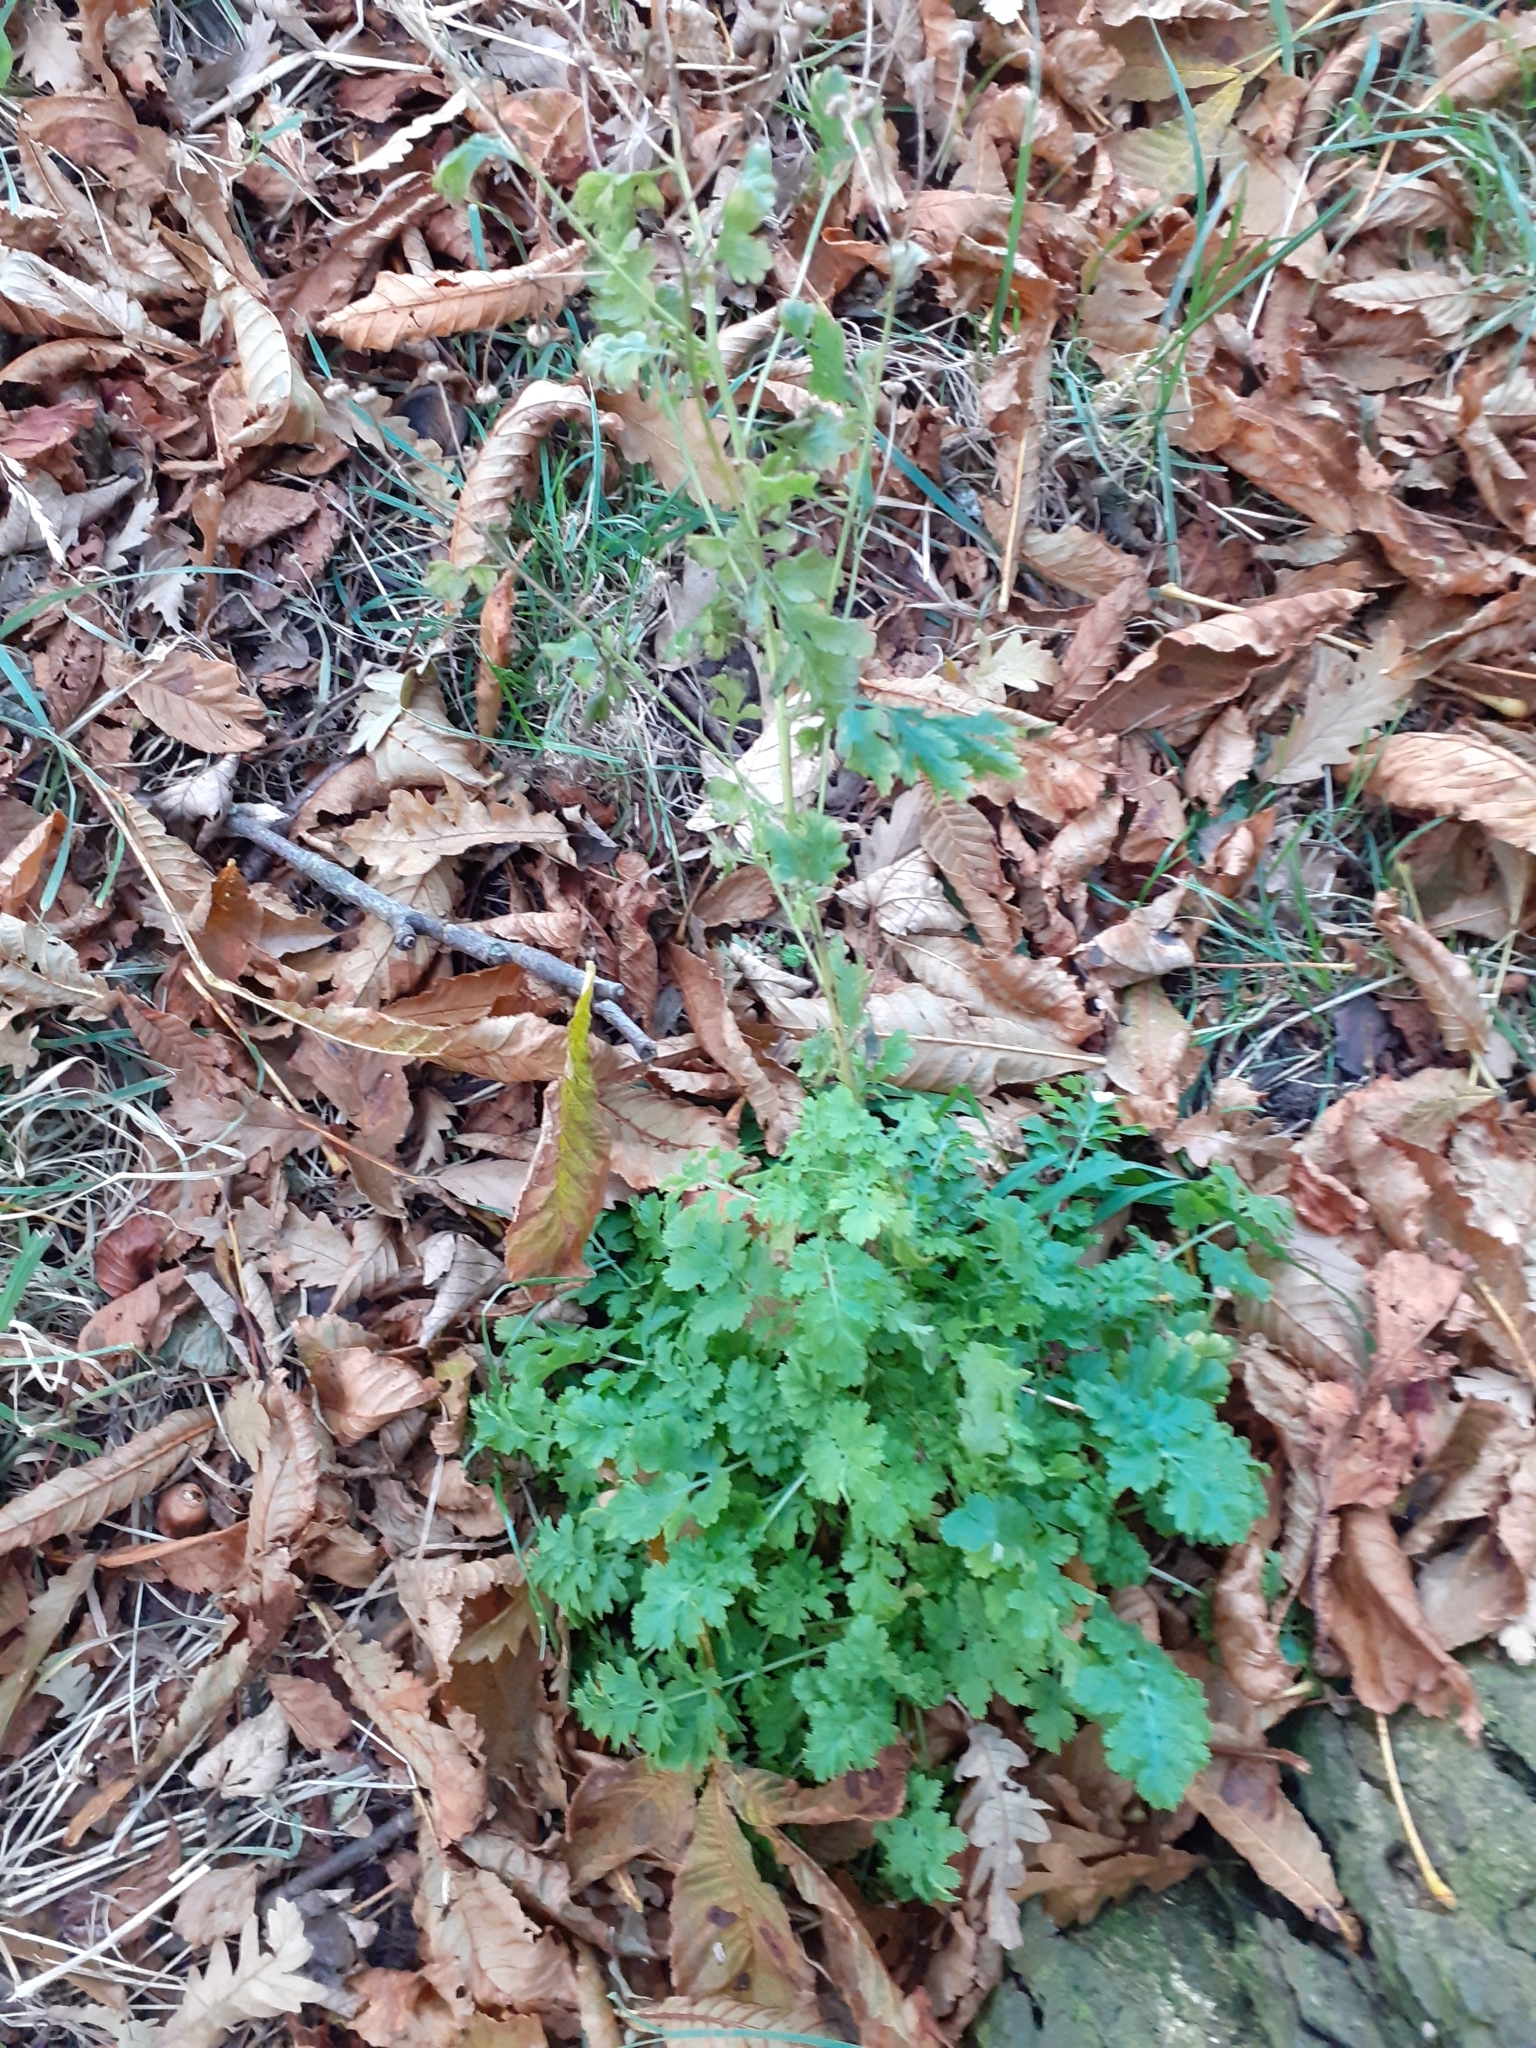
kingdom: Plantae
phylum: Tracheophyta
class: Magnoliopsida
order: Asterales
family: Asteraceae
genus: Tanacetum
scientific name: Tanacetum parthenium
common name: Feverfew
